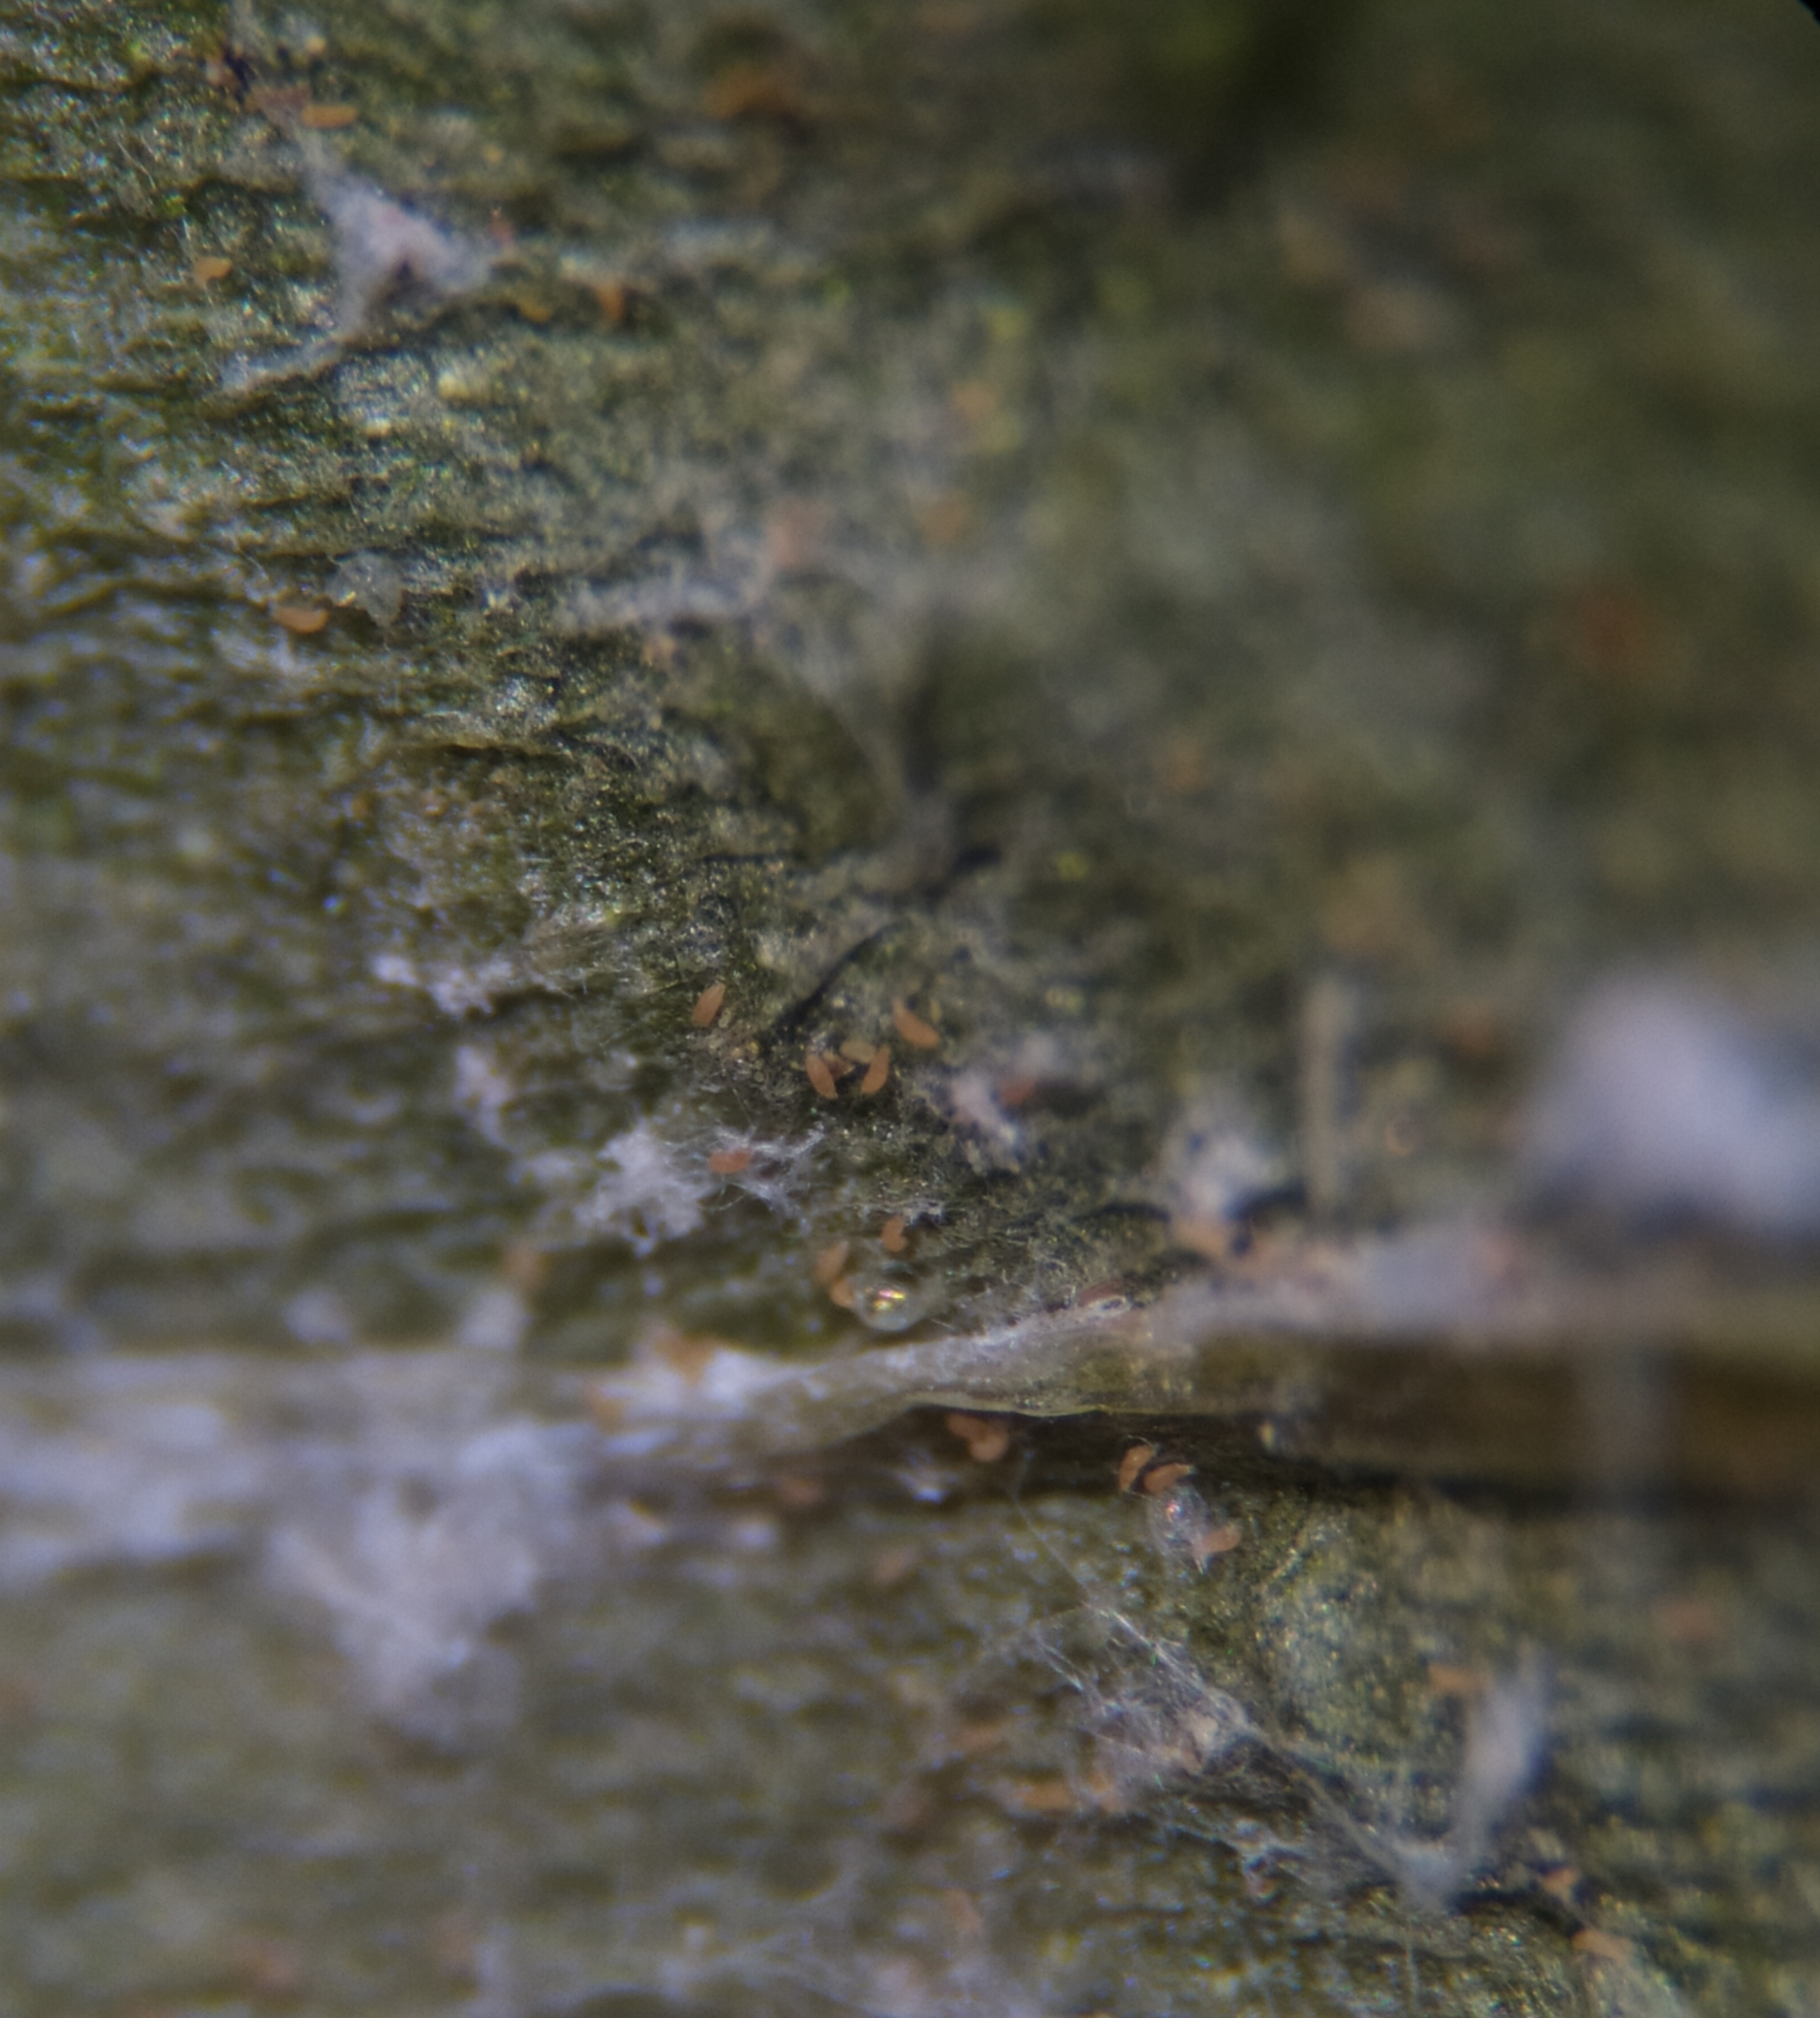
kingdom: Animalia
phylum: Arthropoda
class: Arachnida
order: Trombidiformes
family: Eriophyidae
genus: Aceria
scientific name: Aceria eucricotes
